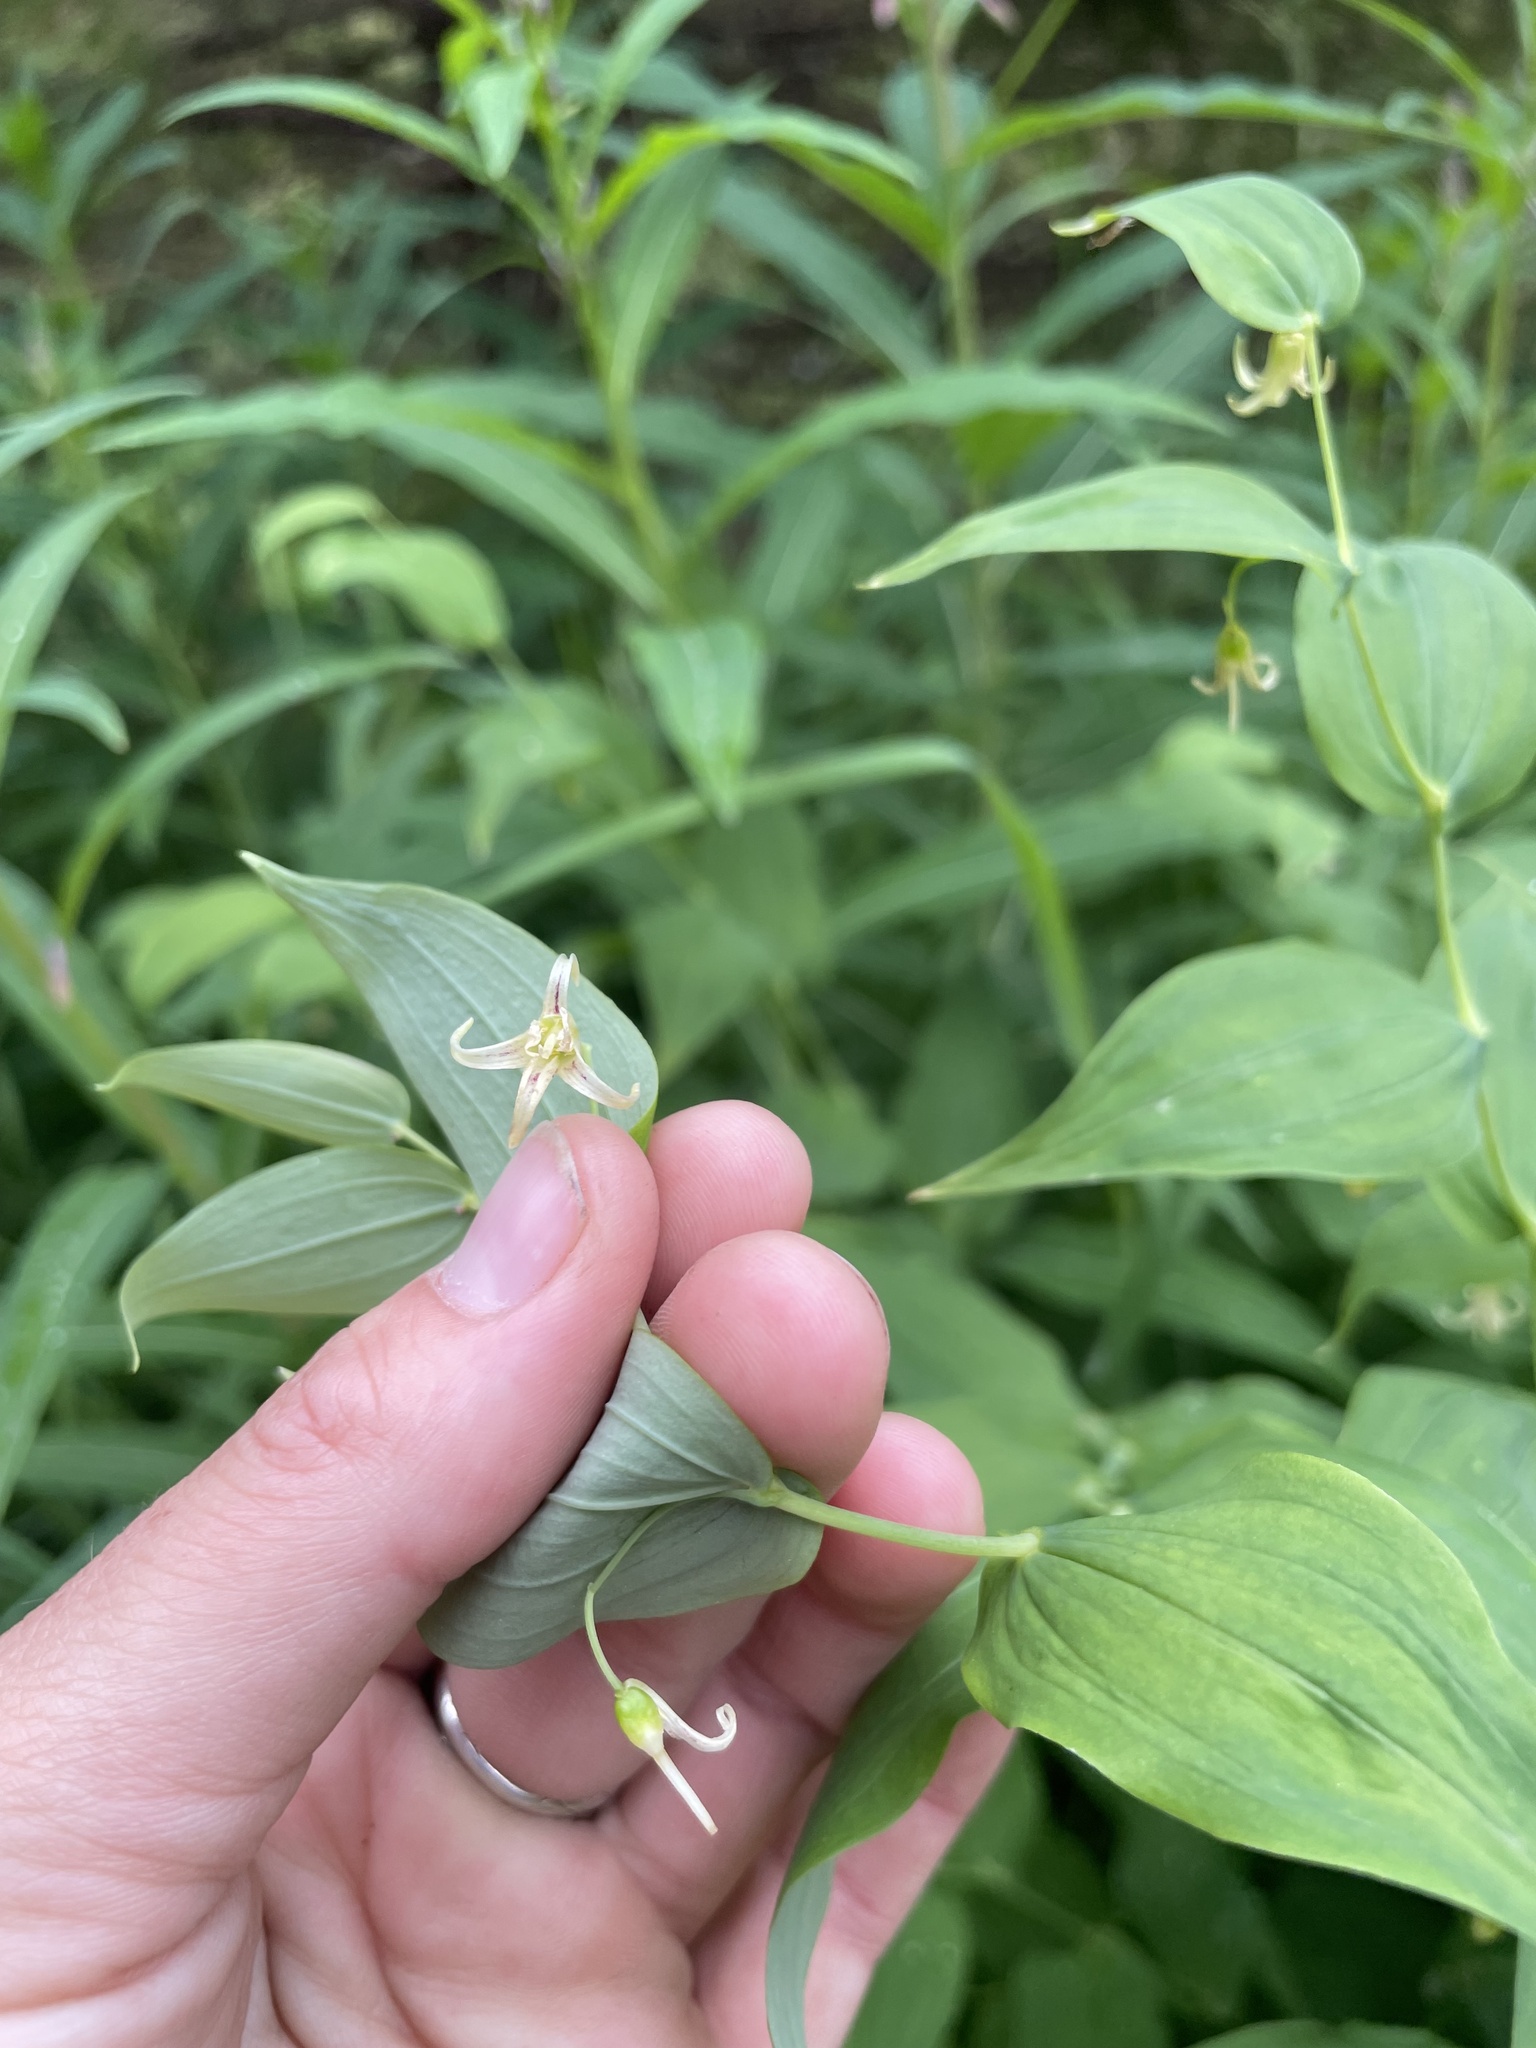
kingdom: Plantae
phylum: Tracheophyta
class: Liliopsida
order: Liliales
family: Liliaceae
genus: Streptopus
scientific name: Streptopus amplexifolius
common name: Clasp twisted stalk
